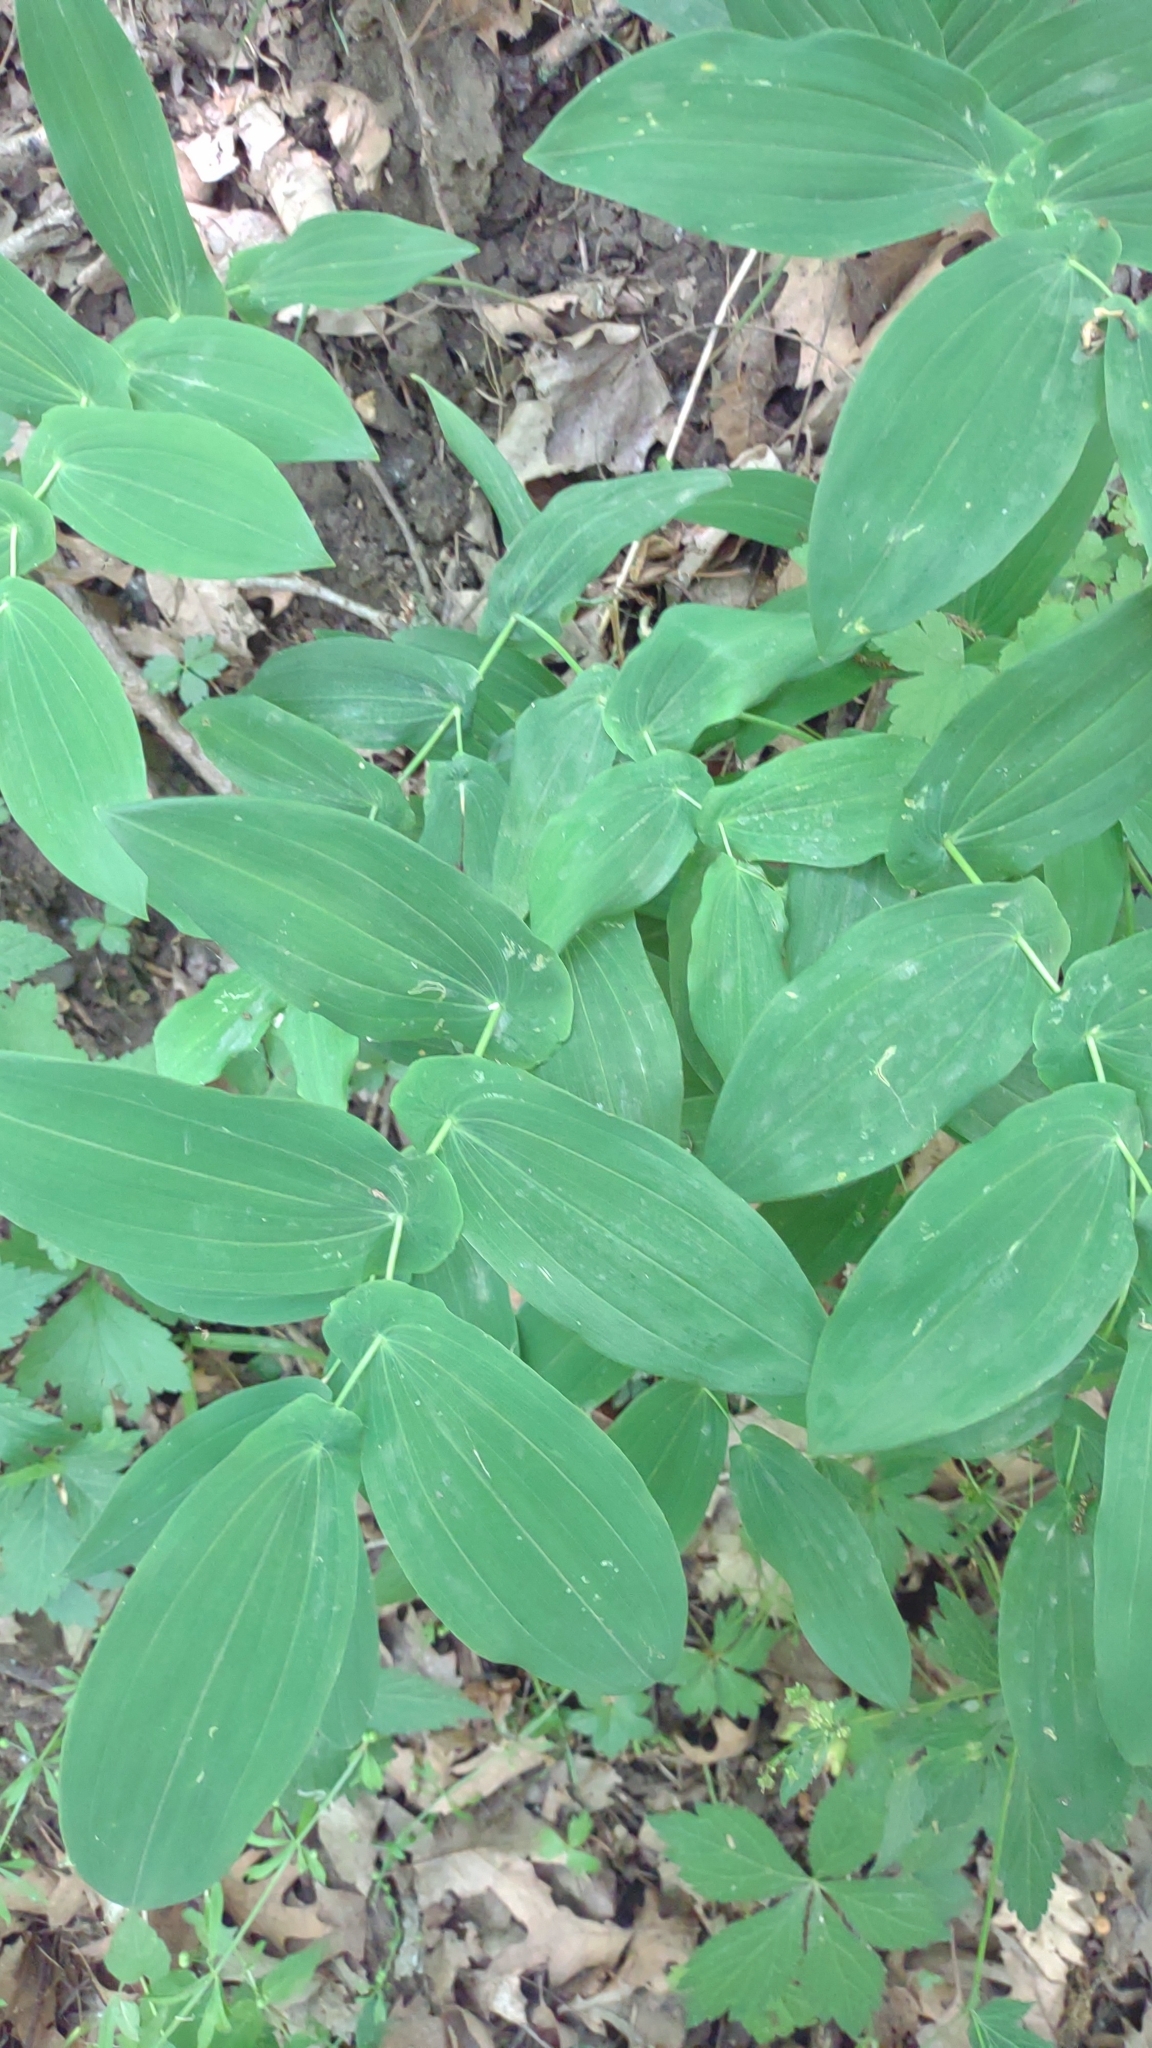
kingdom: Plantae
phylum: Tracheophyta
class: Liliopsida
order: Liliales
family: Colchicaceae
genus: Uvularia
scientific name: Uvularia grandiflora
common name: Bellwort
